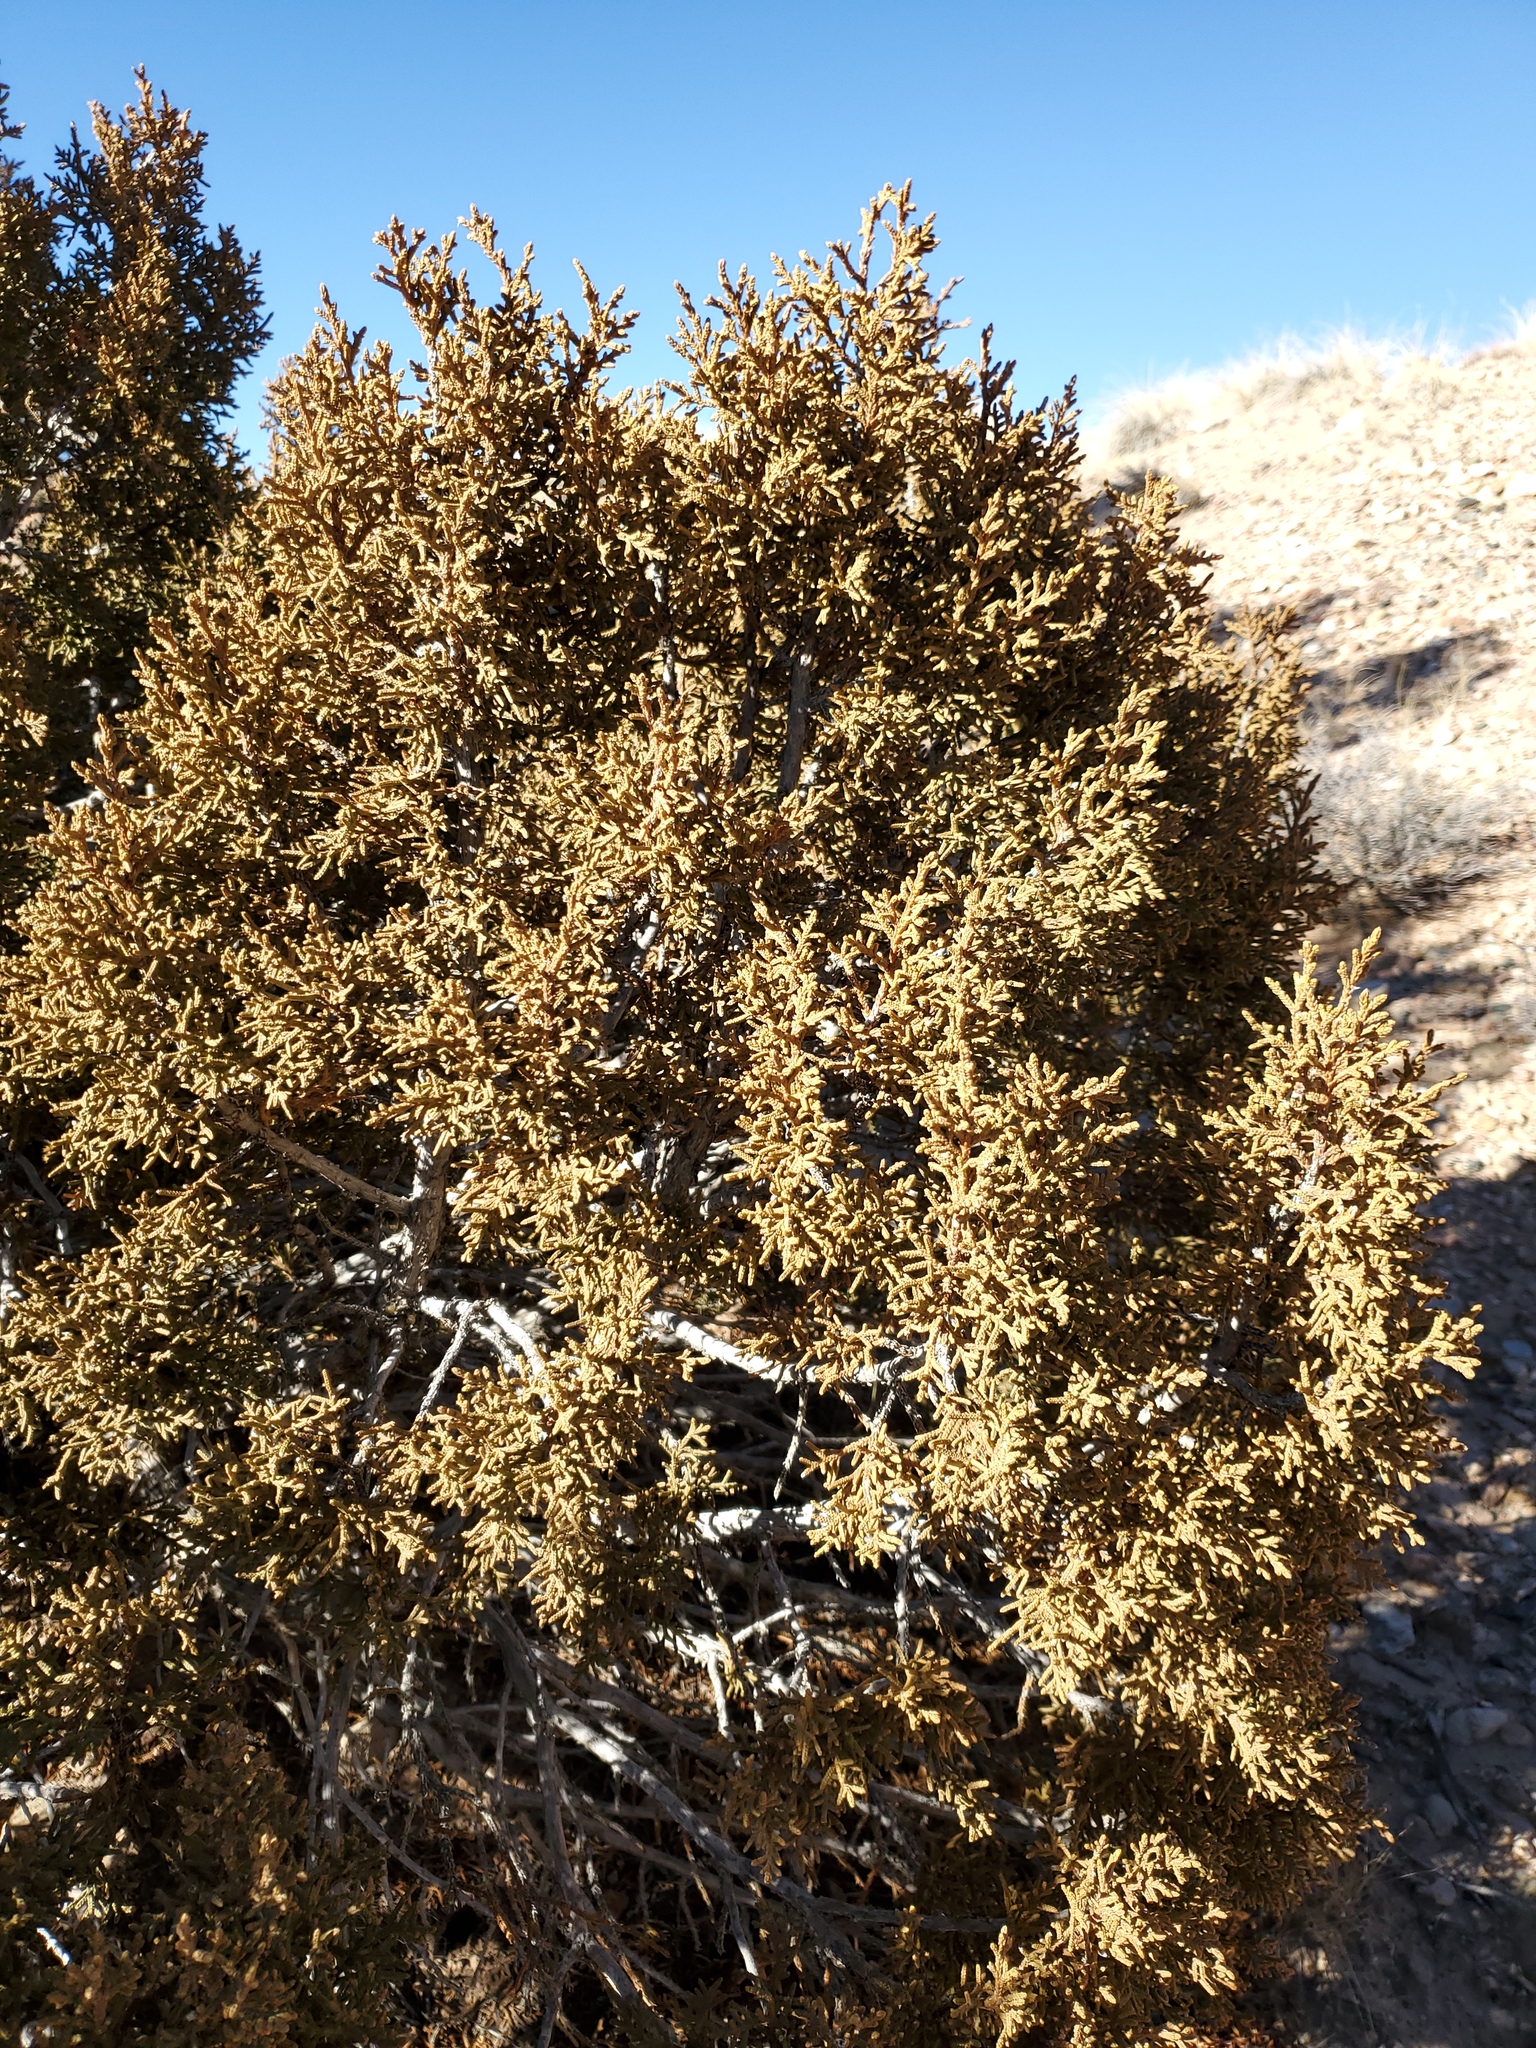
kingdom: Plantae
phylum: Tracheophyta
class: Pinopsida
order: Pinales
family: Cupressaceae
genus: Juniperus
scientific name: Juniperus monosperma
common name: One-seed juniper
